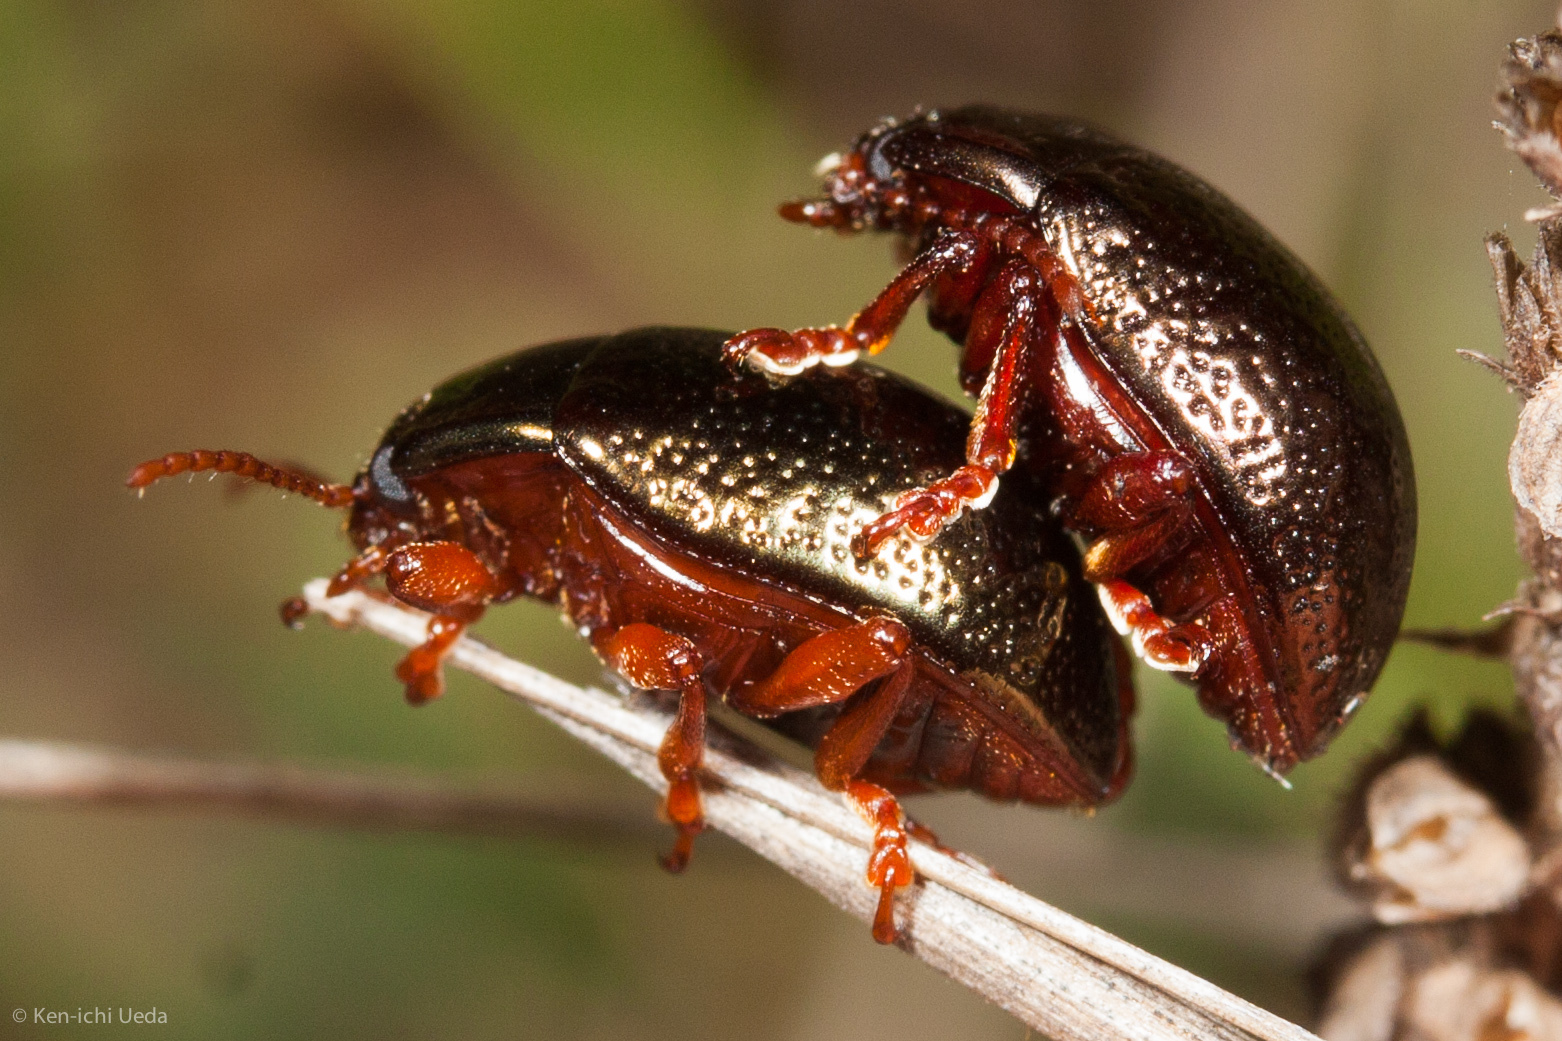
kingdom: Animalia
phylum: Arthropoda
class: Insecta
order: Coleoptera
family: Chrysomelidae
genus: Chrysolina
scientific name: Chrysolina bankii
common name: Leaf beetle
